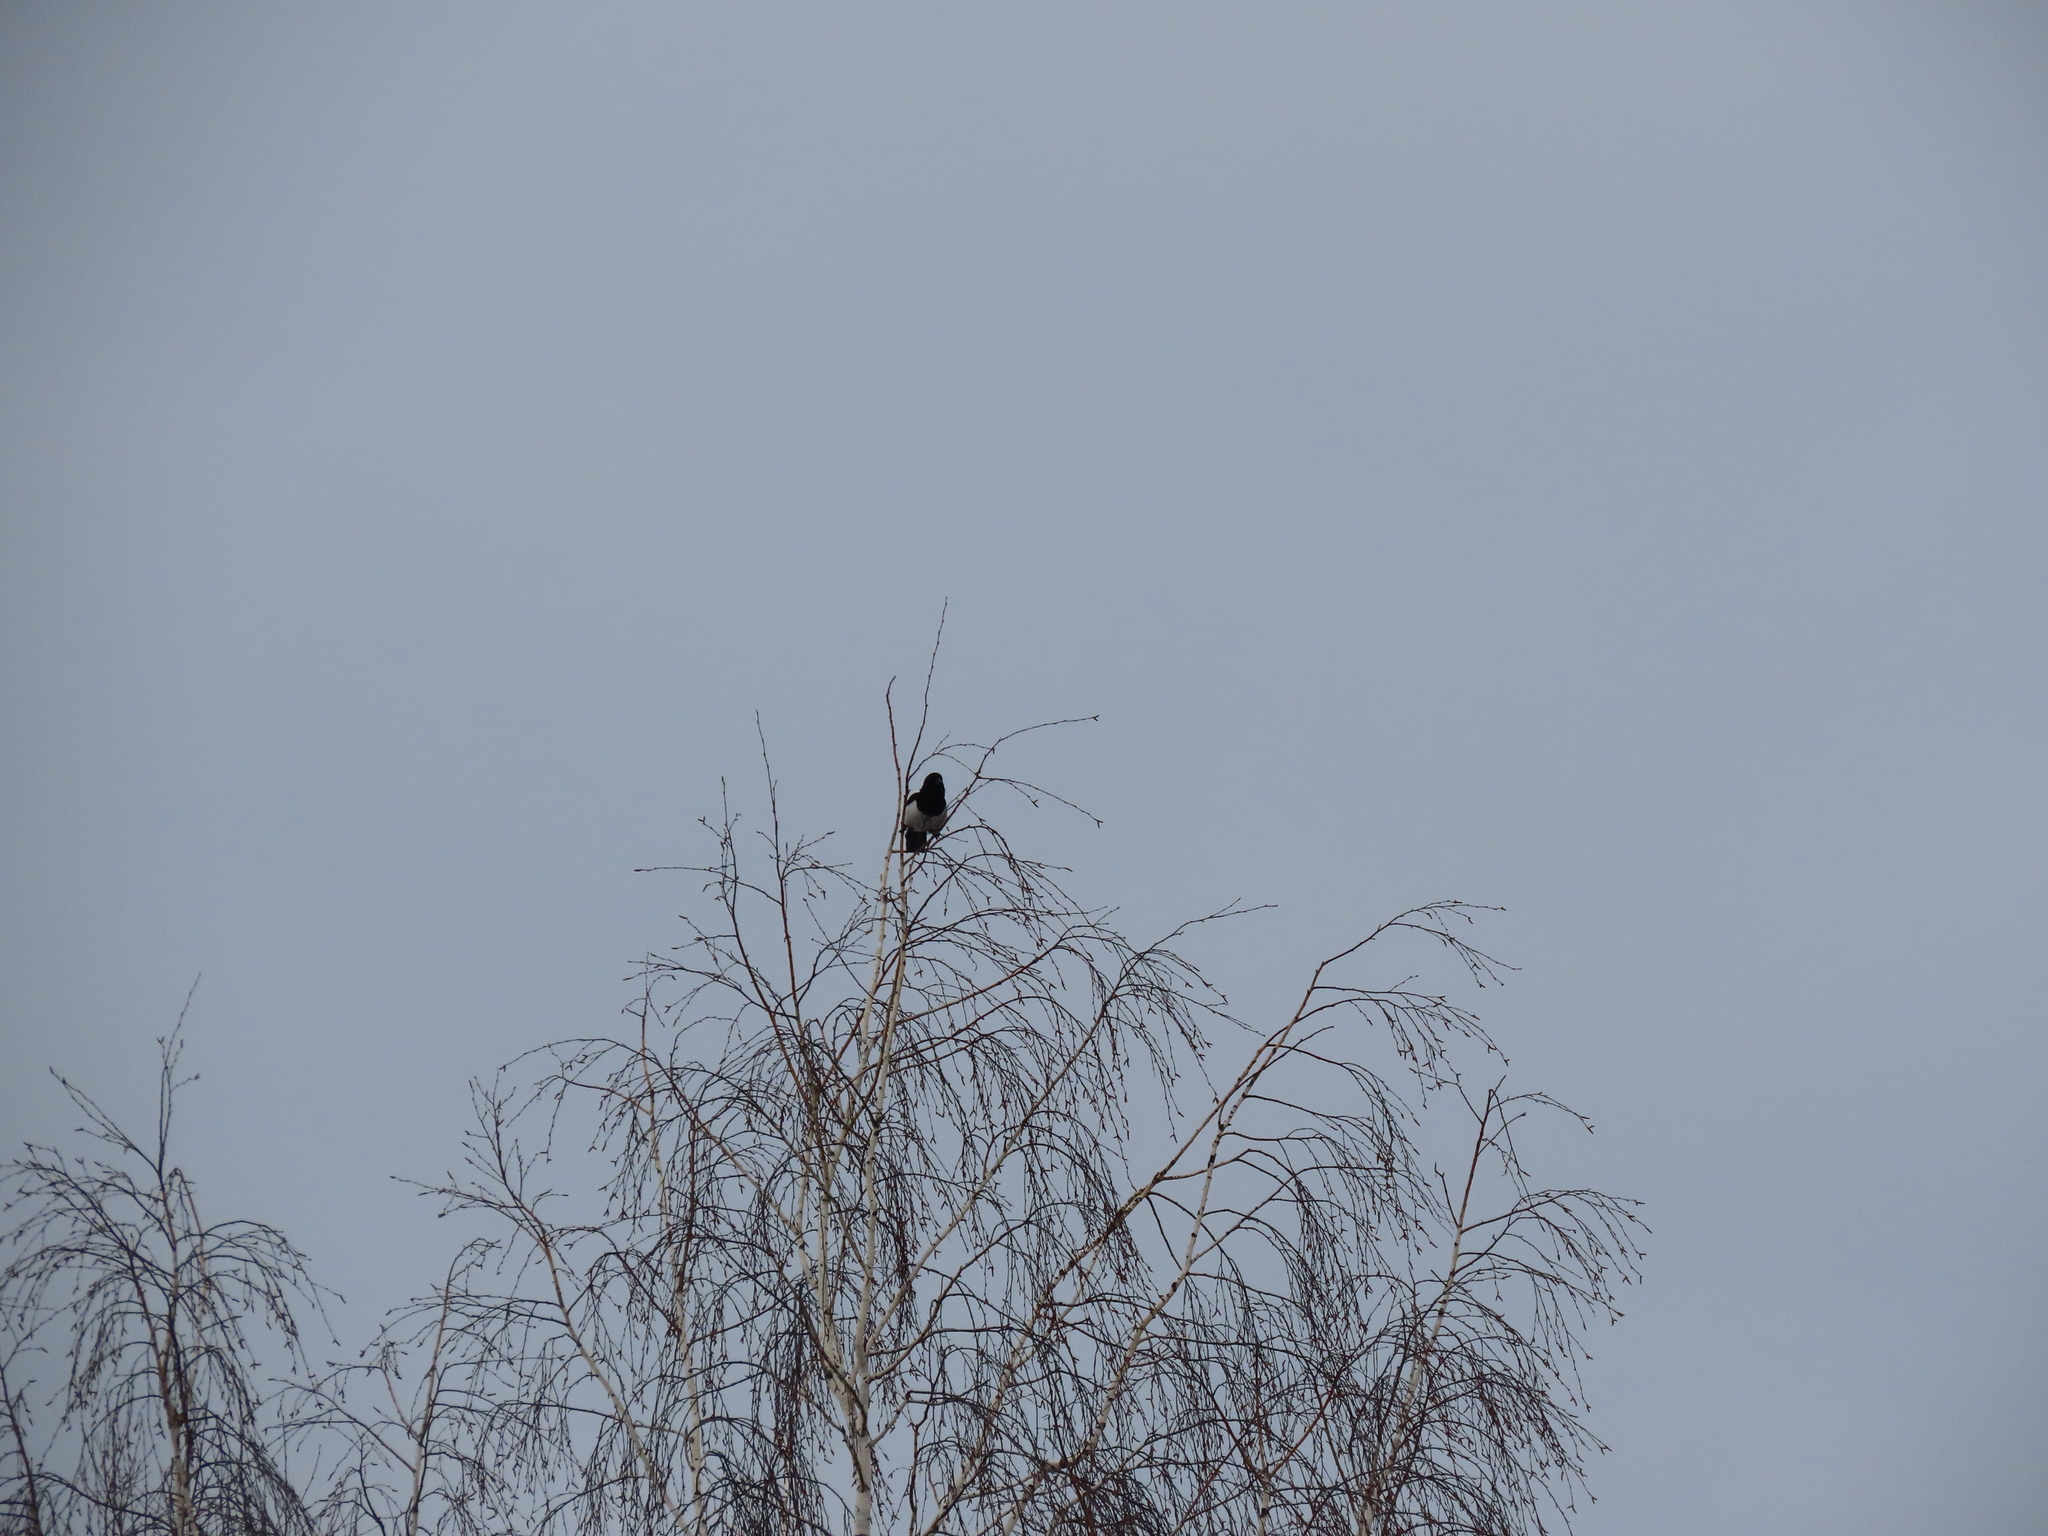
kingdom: Animalia
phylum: Chordata
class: Aves
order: Passeriformes
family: Corvidae
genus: Pica
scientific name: Pica pica
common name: Eurasian magpie
